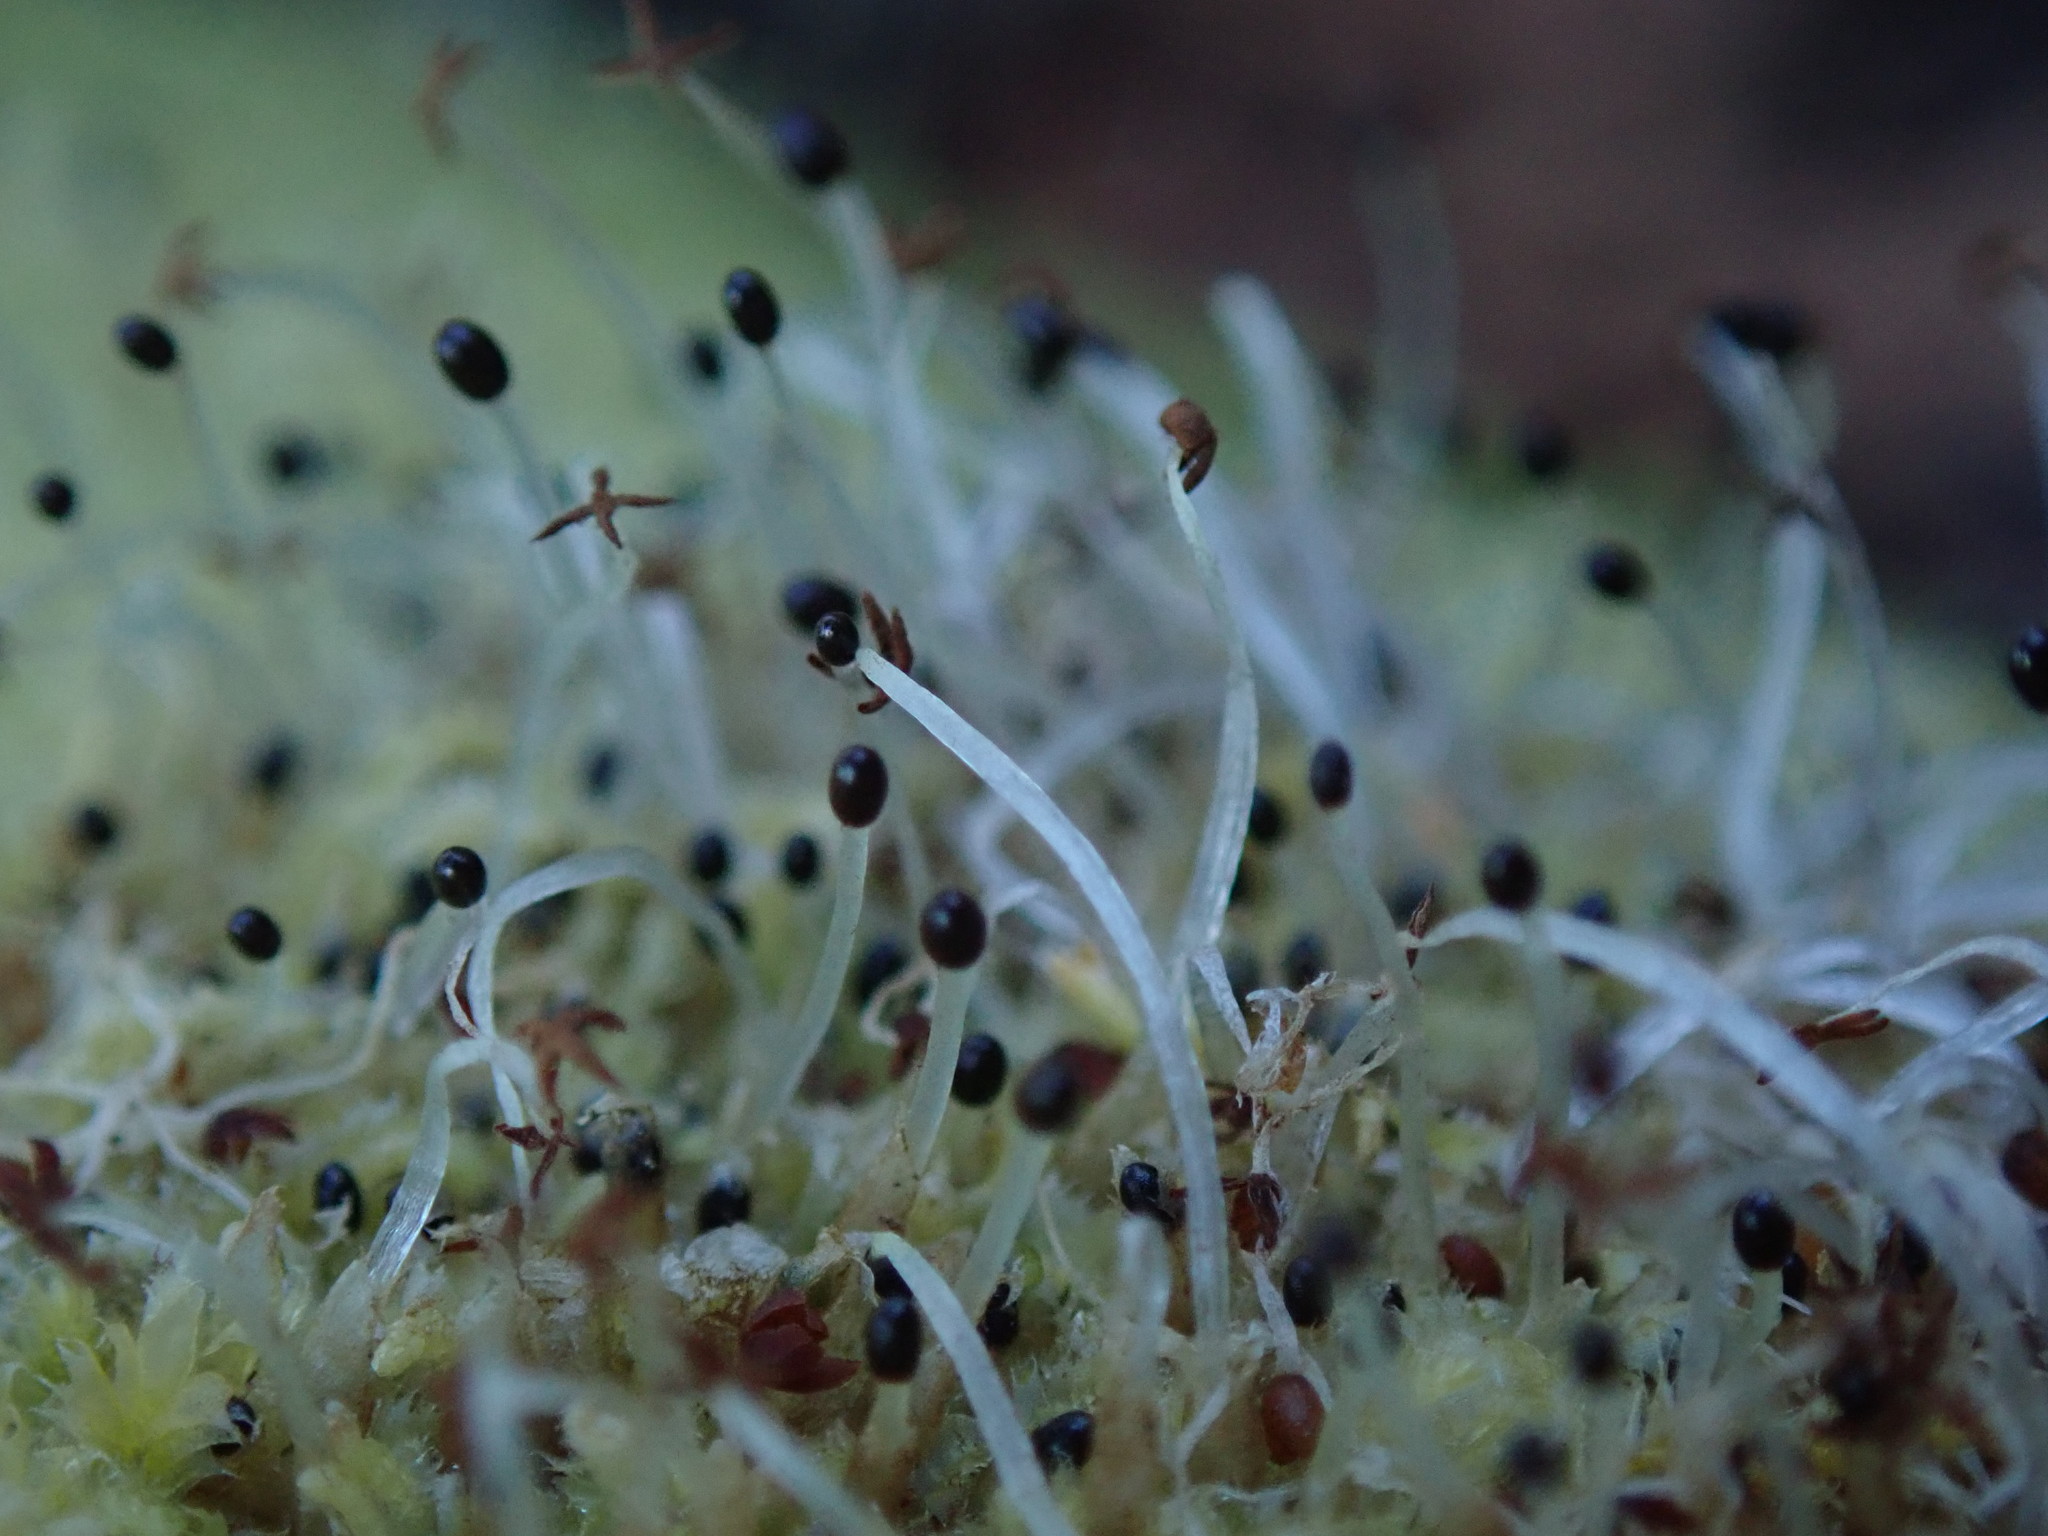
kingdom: Plantae
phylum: Marchantiophyta
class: Jungermanniopsida
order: Jungermanniales
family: Lophocoleaceae
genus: Lophocolea
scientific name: Lophocolea bidentata
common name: Bifid crestwort
